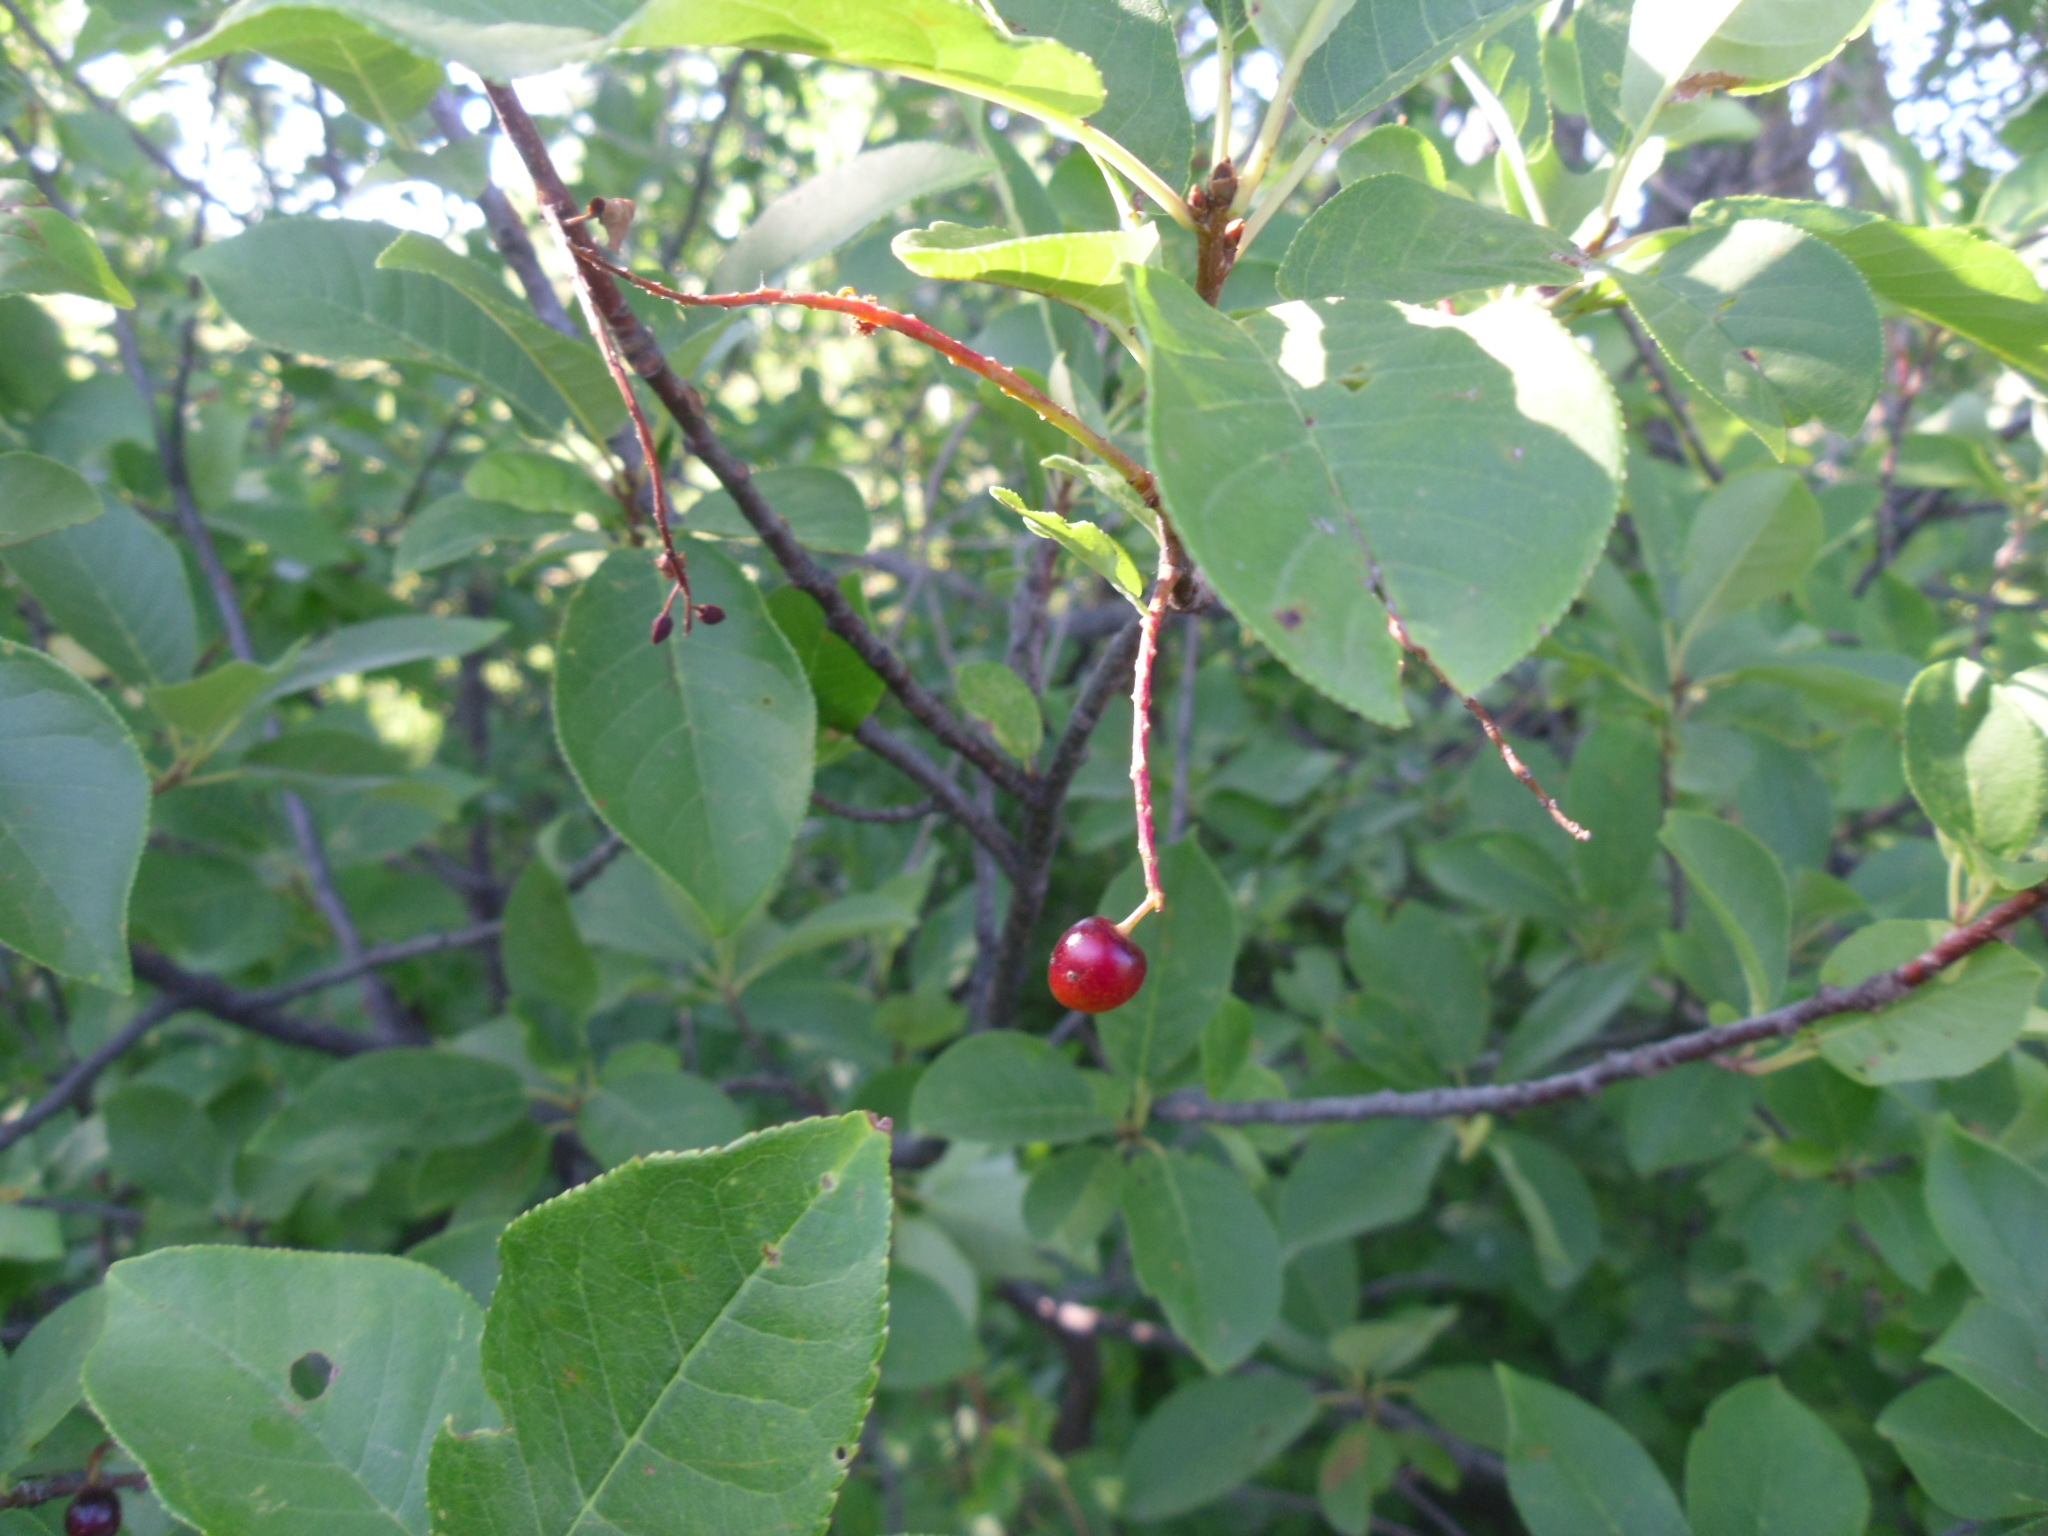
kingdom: Plantae
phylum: Tracheophyta
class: Magnoliopsida
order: Rosales
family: Rosaceae
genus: Prunus
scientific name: Prunus virginiana
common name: Chokecherry
